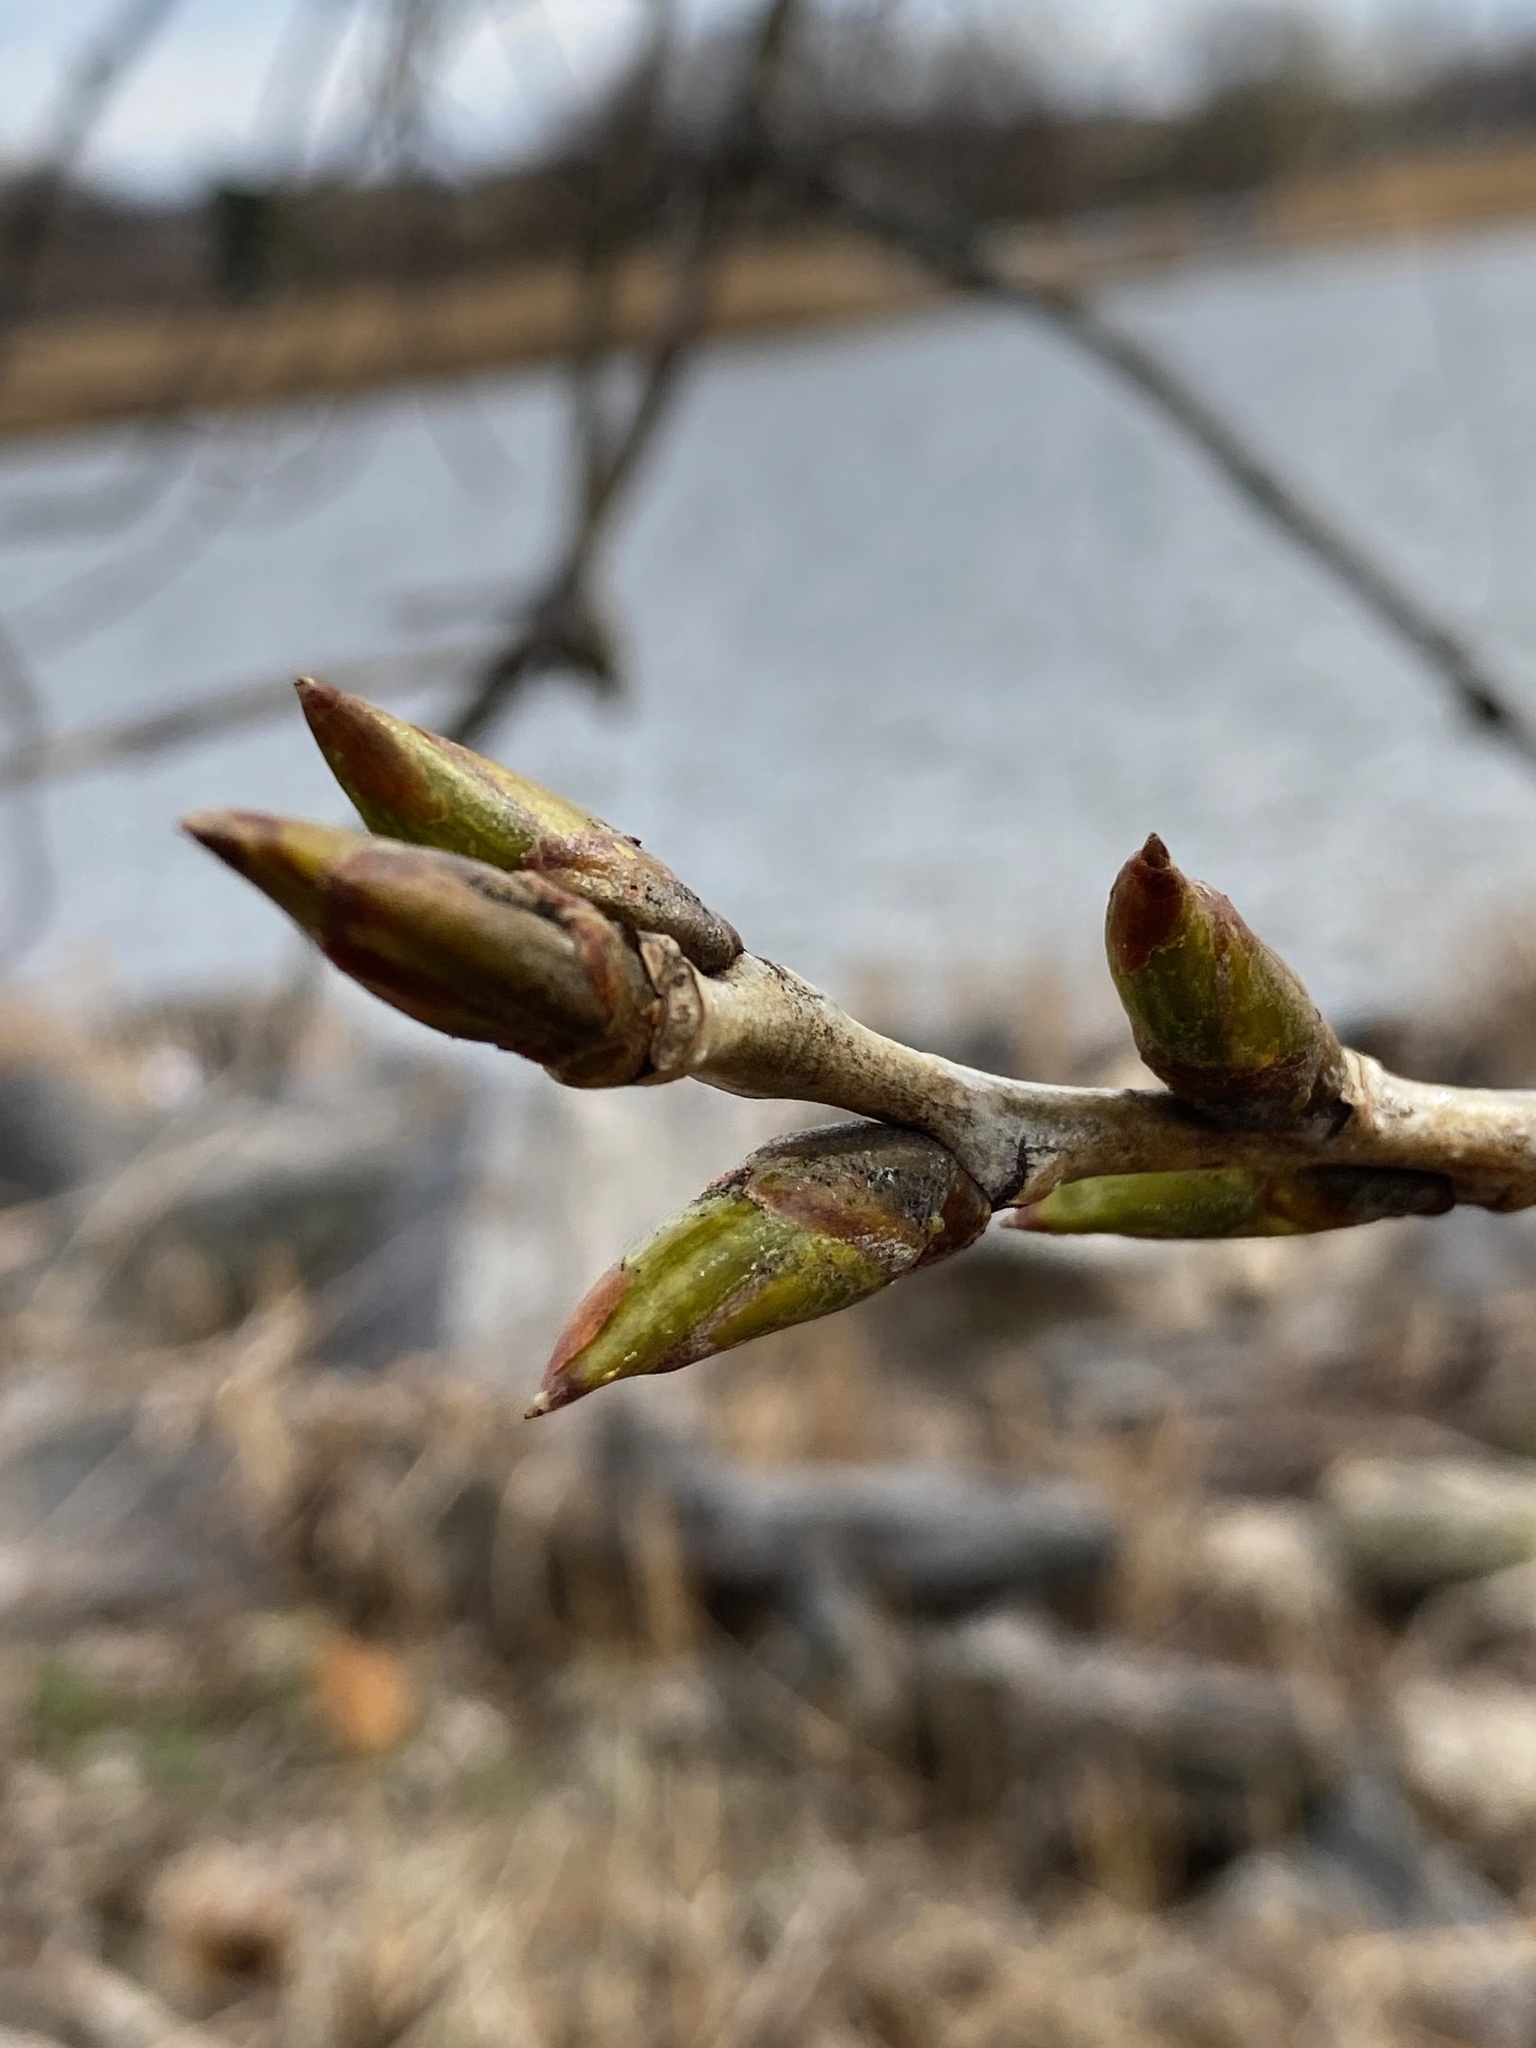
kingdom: Plantae
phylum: Tracheophyta
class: Magnoliopsida
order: Malpighiales
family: Salicaceae
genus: Populus
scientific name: Populus deltoides
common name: Eastern cottonwood
